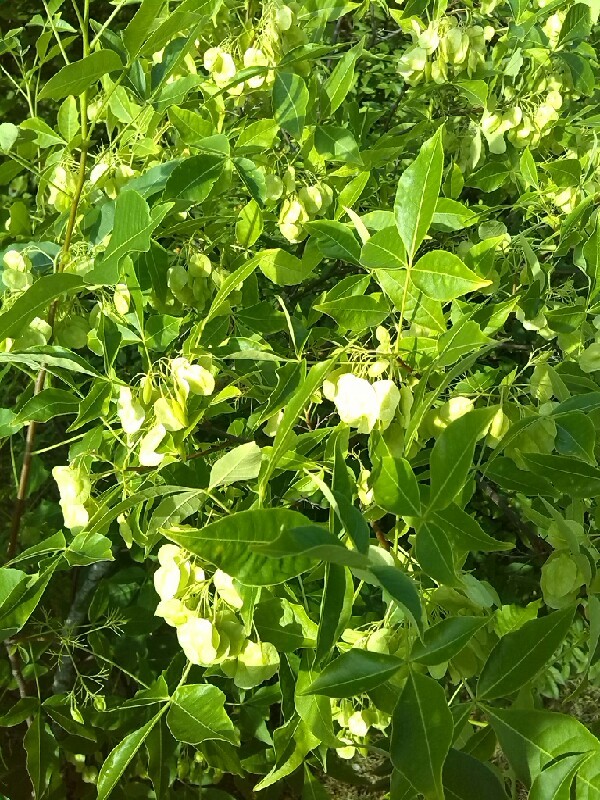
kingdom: Plantae
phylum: Tracheophyta
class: Magnoliopsida
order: Sapindales
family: Rutaceae
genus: Ptelea
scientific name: Ptelea trifoliata
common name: Common hop-tree
